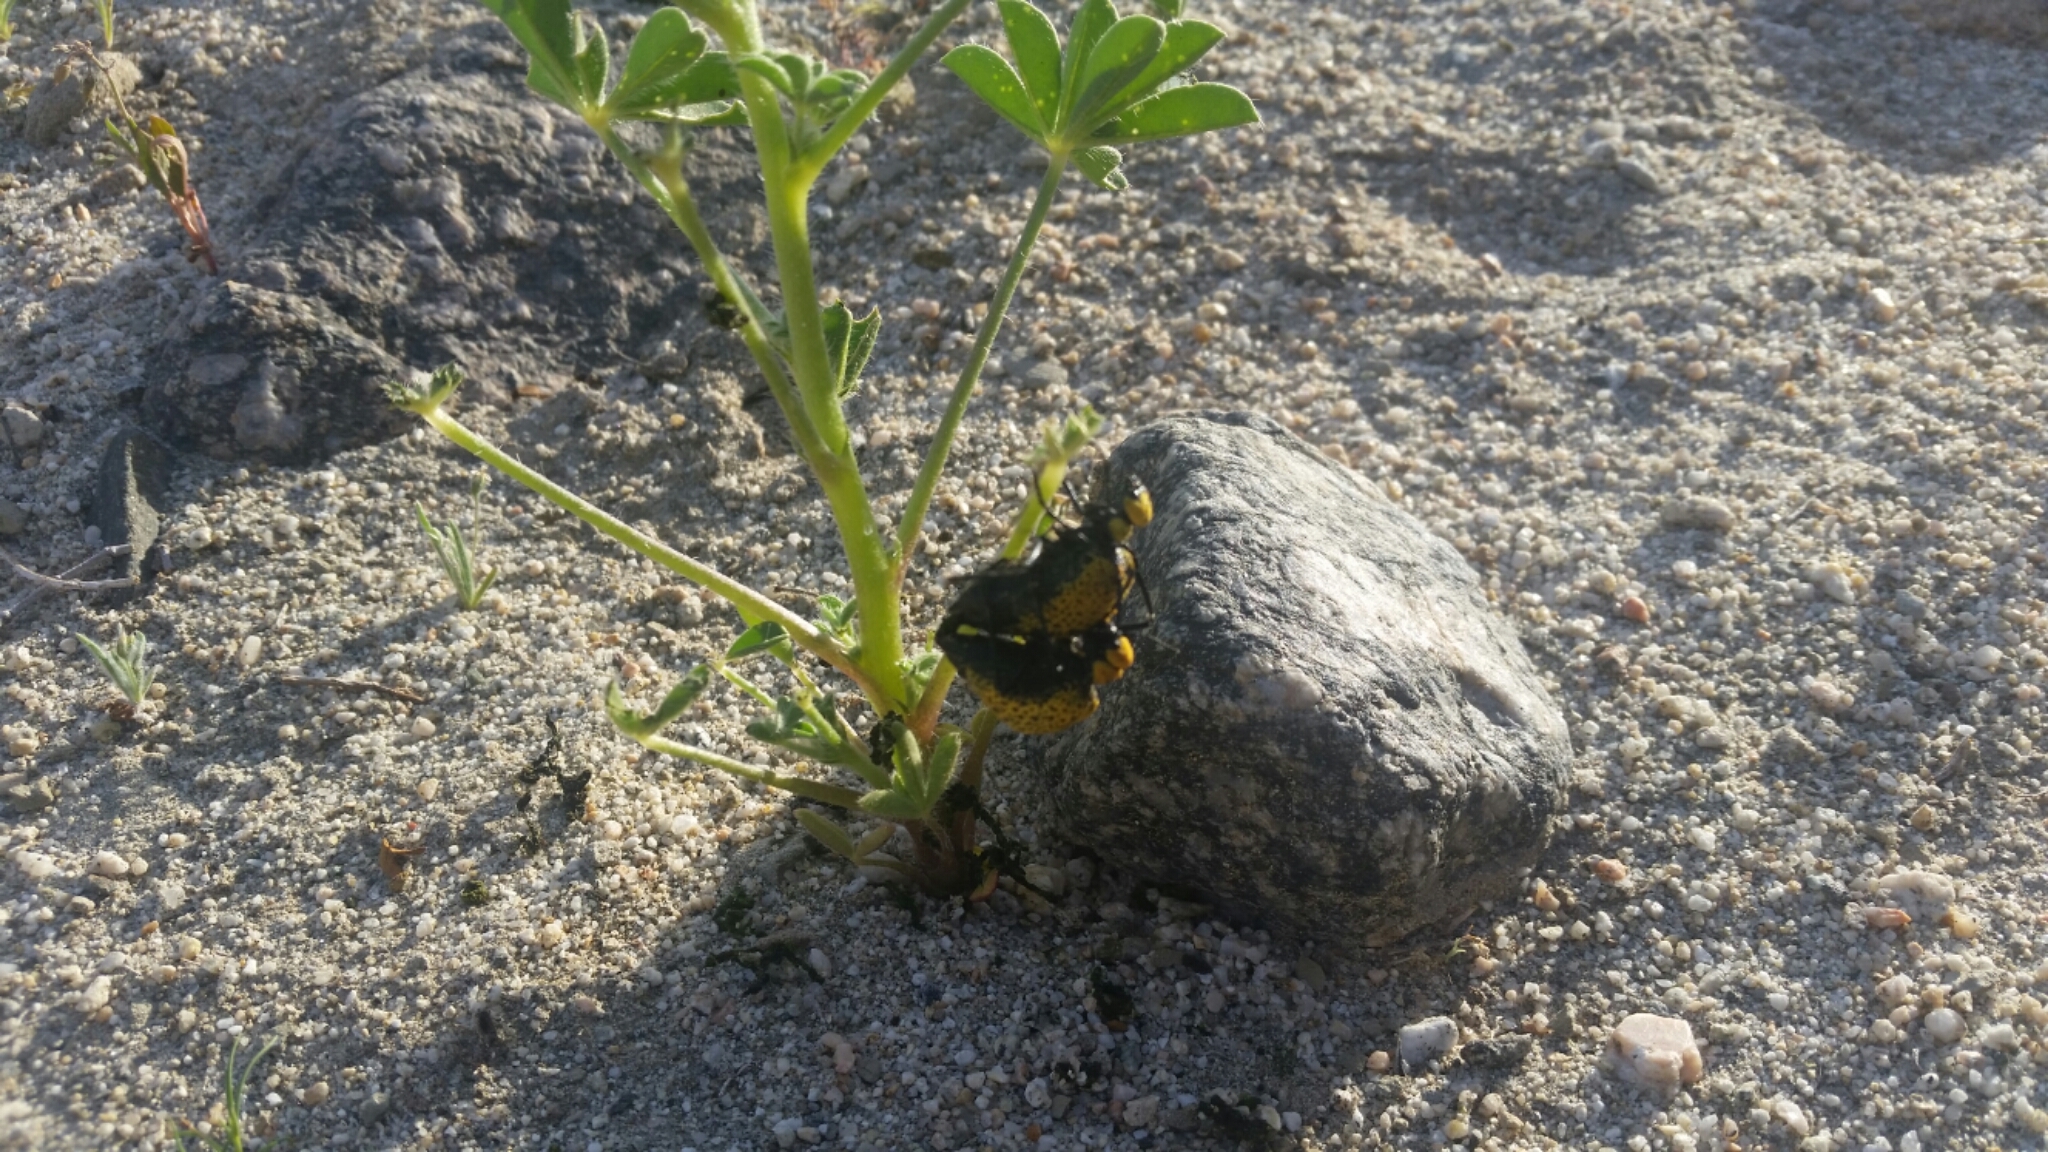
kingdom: Animalia
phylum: Arthropoda
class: Insecta
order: Coleoptera
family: Meloidae
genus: Cysteodemus
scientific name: Cysteodemus armatus
